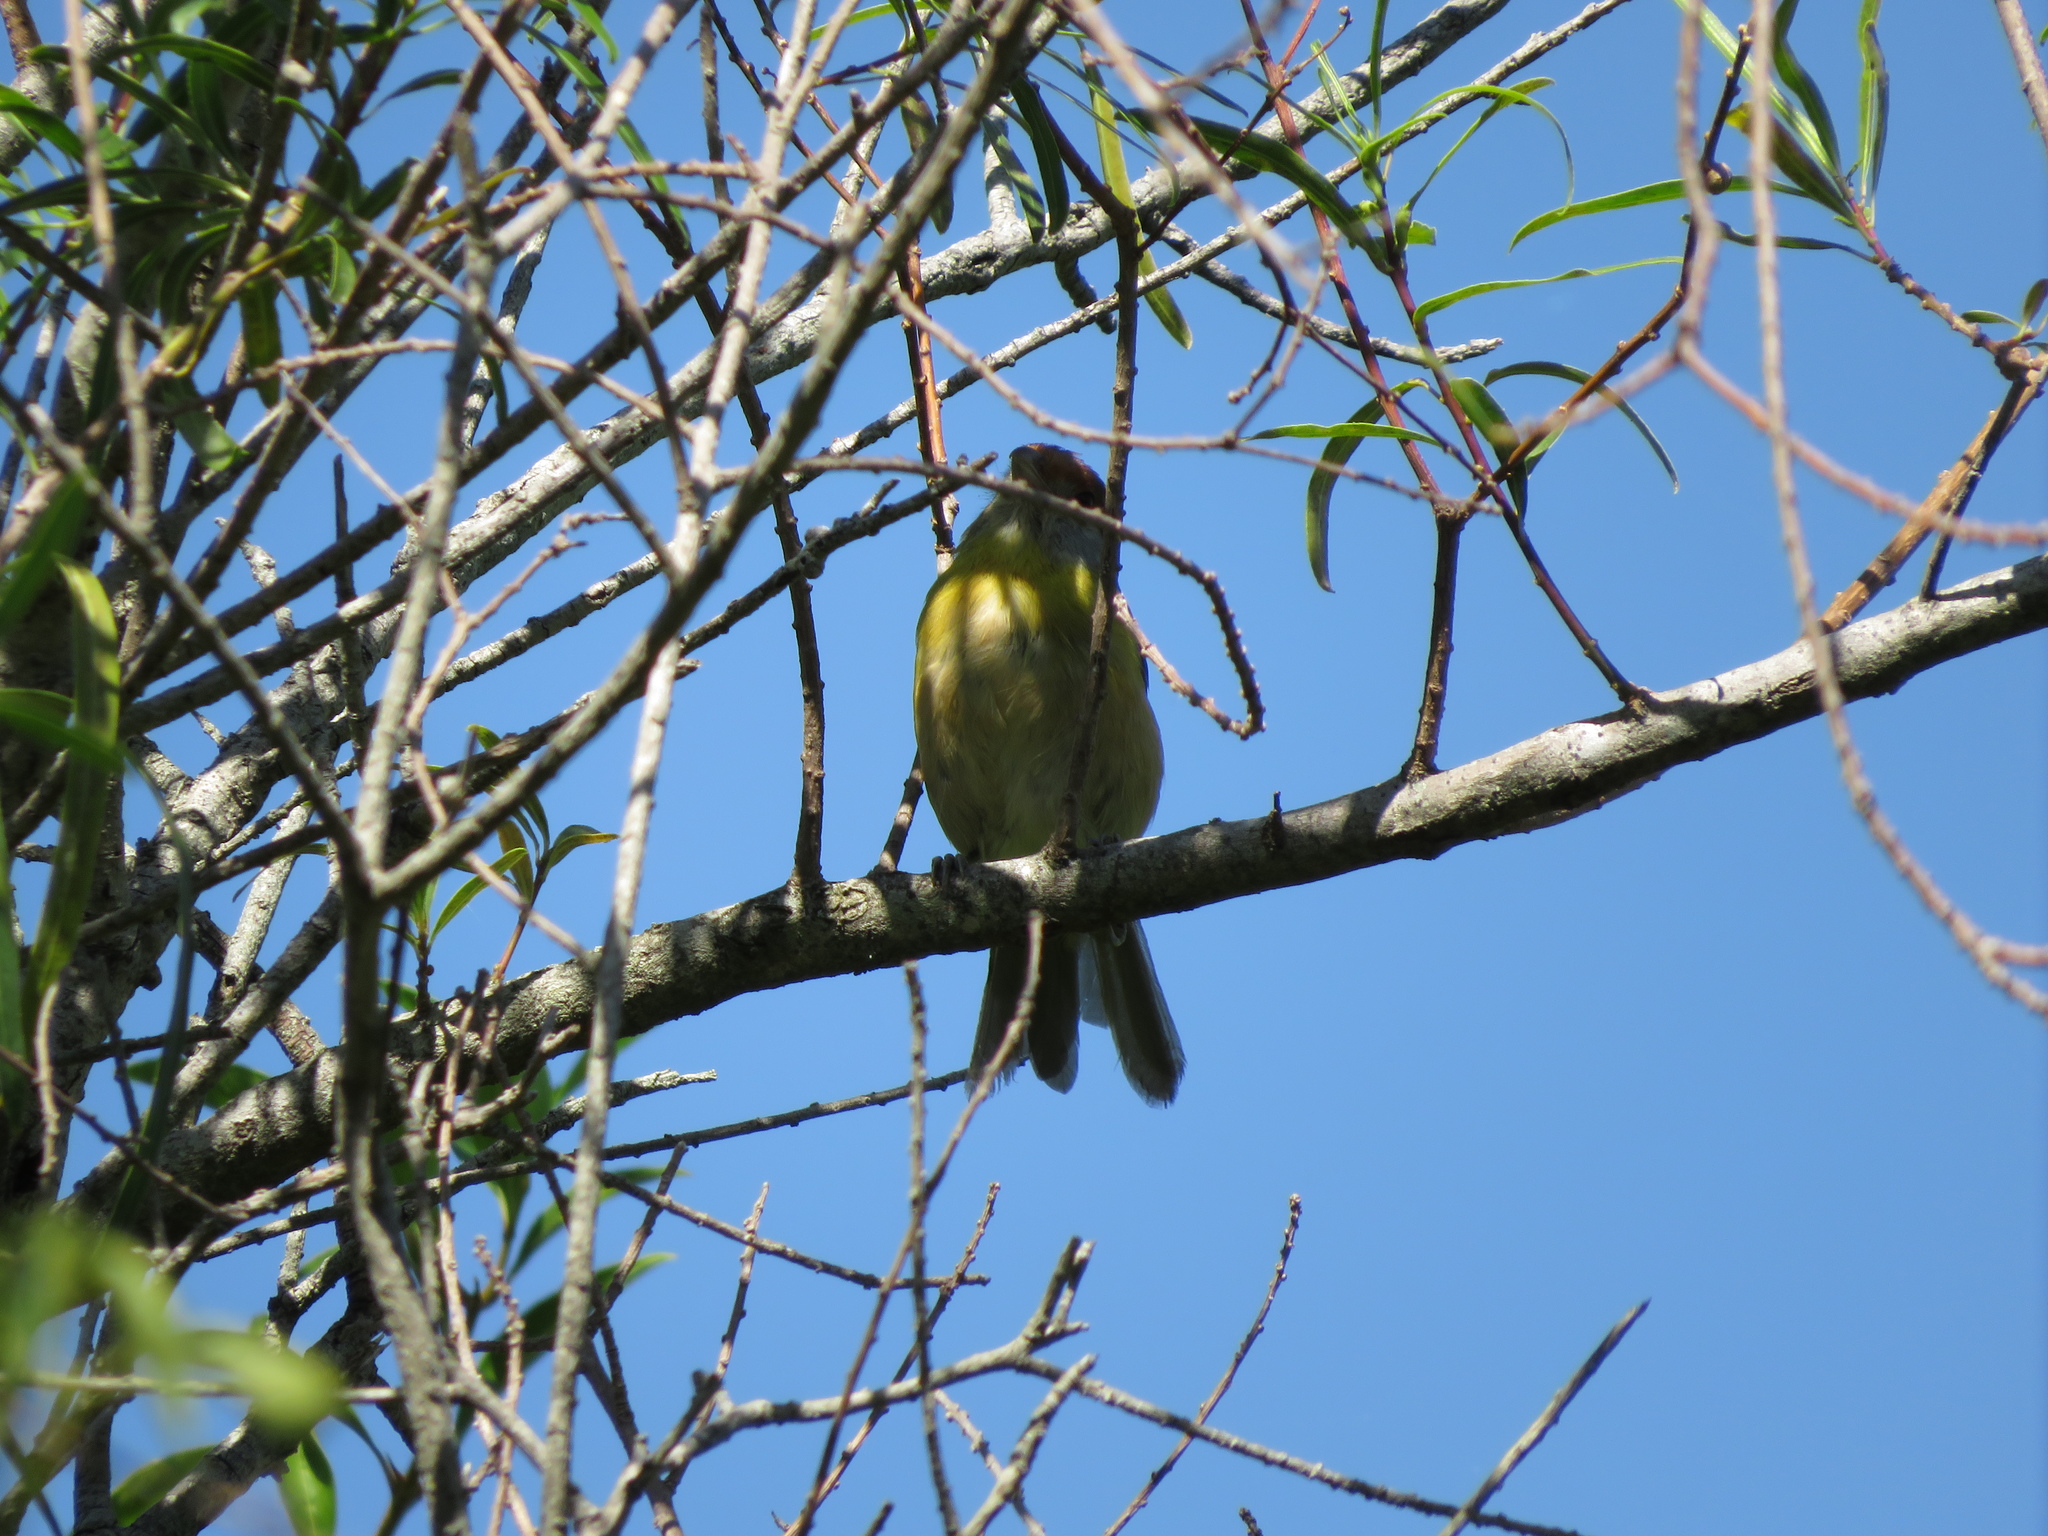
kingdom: Animalia
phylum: Chordata
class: Aves
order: Passeriformes
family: Vireonidae
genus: Cyclarhis
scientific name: Cyclarhis gujanensis
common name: Rufous-browed peppershrike
